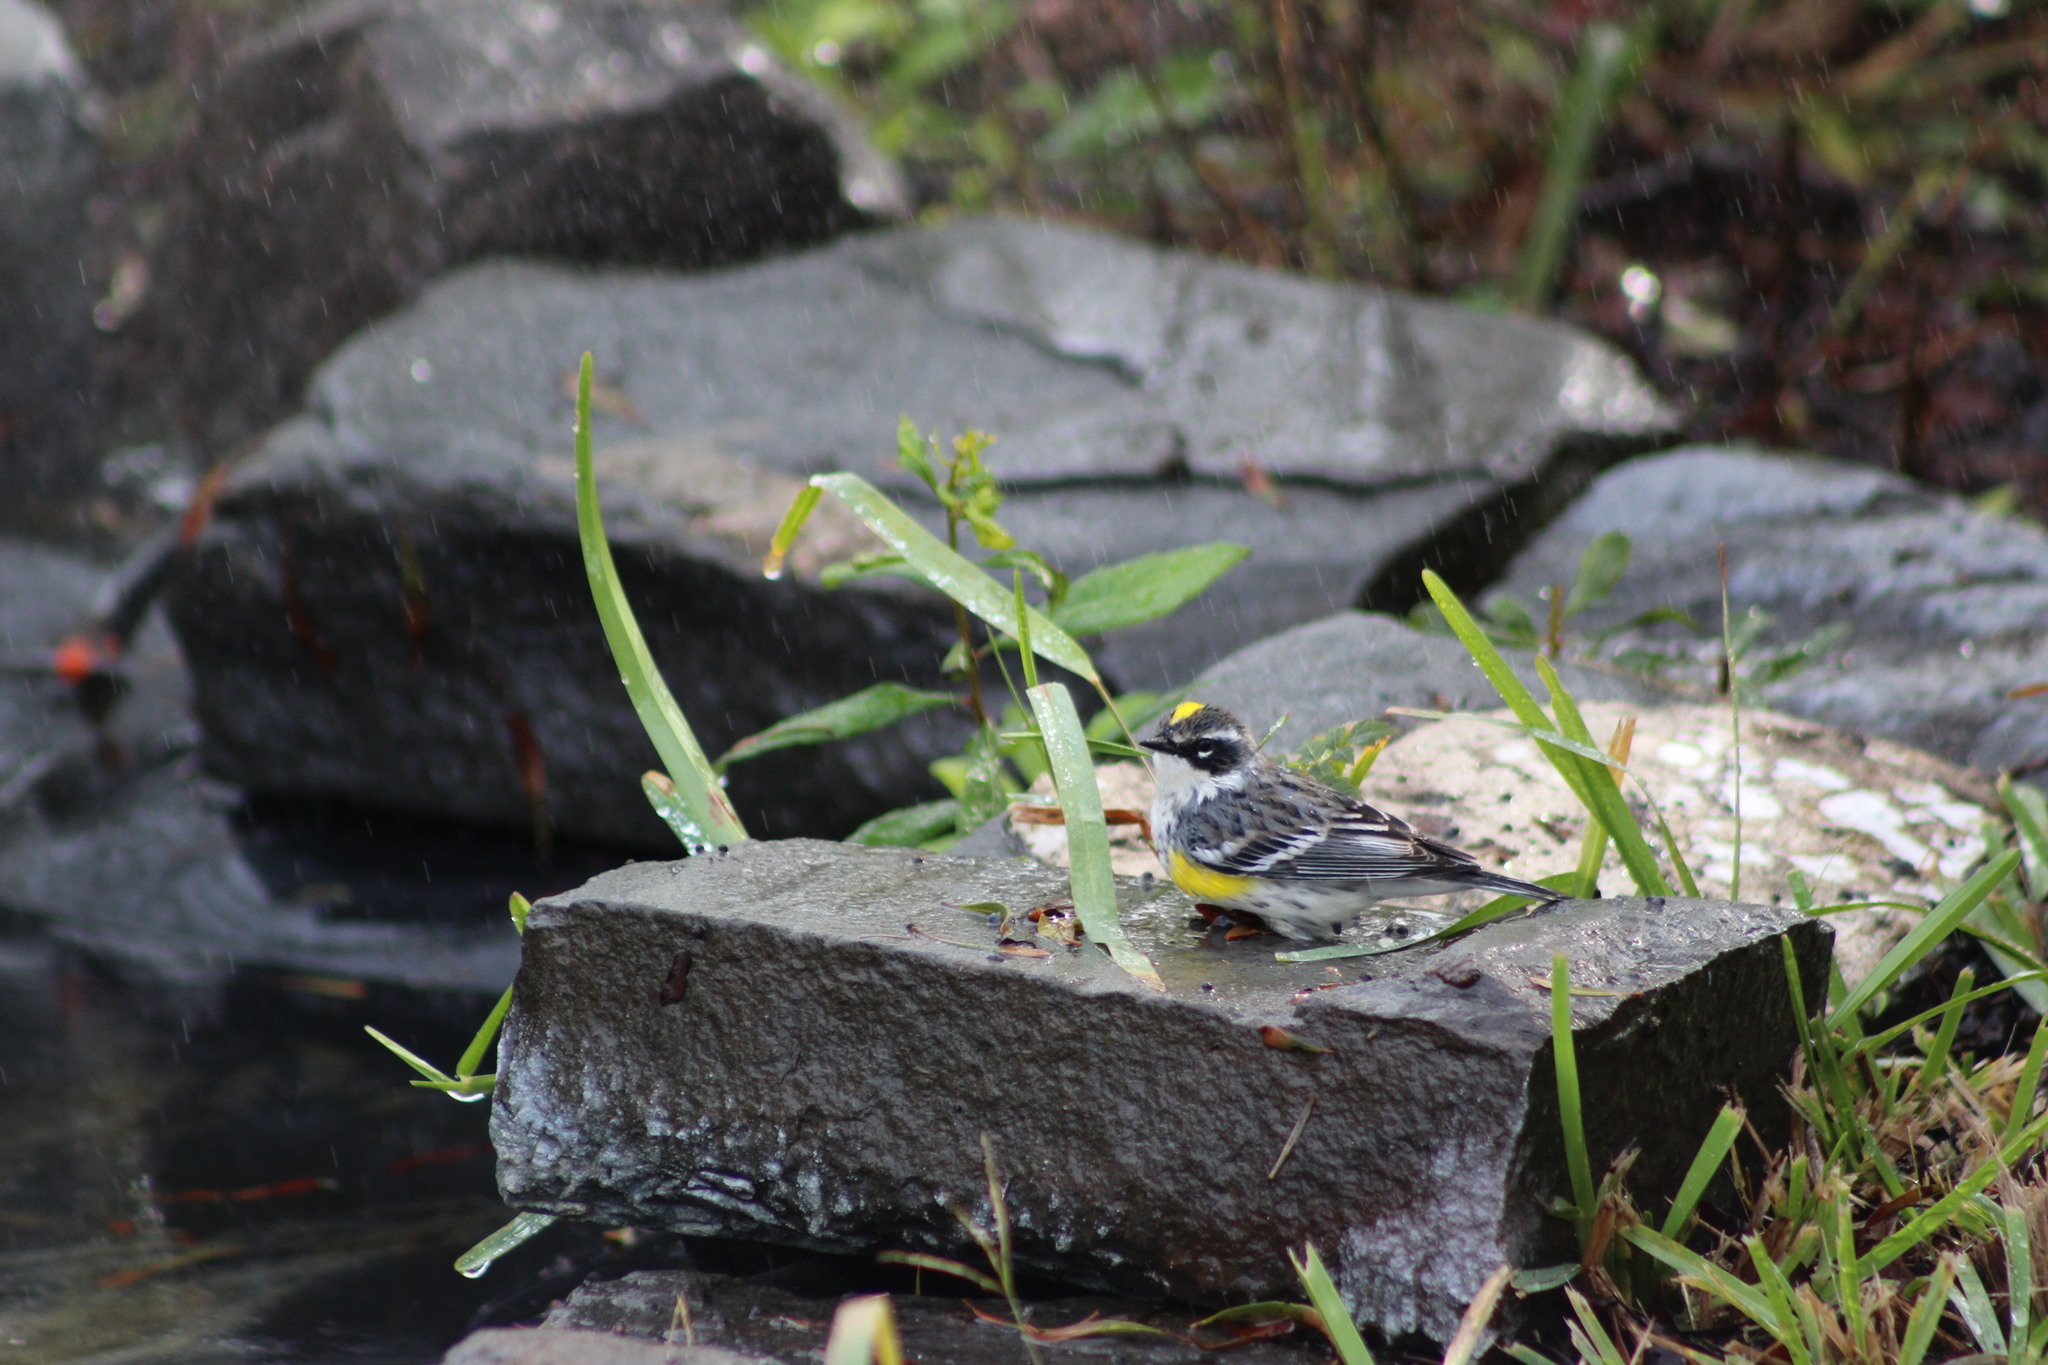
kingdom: Animalia
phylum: Chordata
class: Aves
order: Passeriformes
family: Parulidae
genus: Setophaga
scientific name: Setophaga coronata
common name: Myrtle warbler
